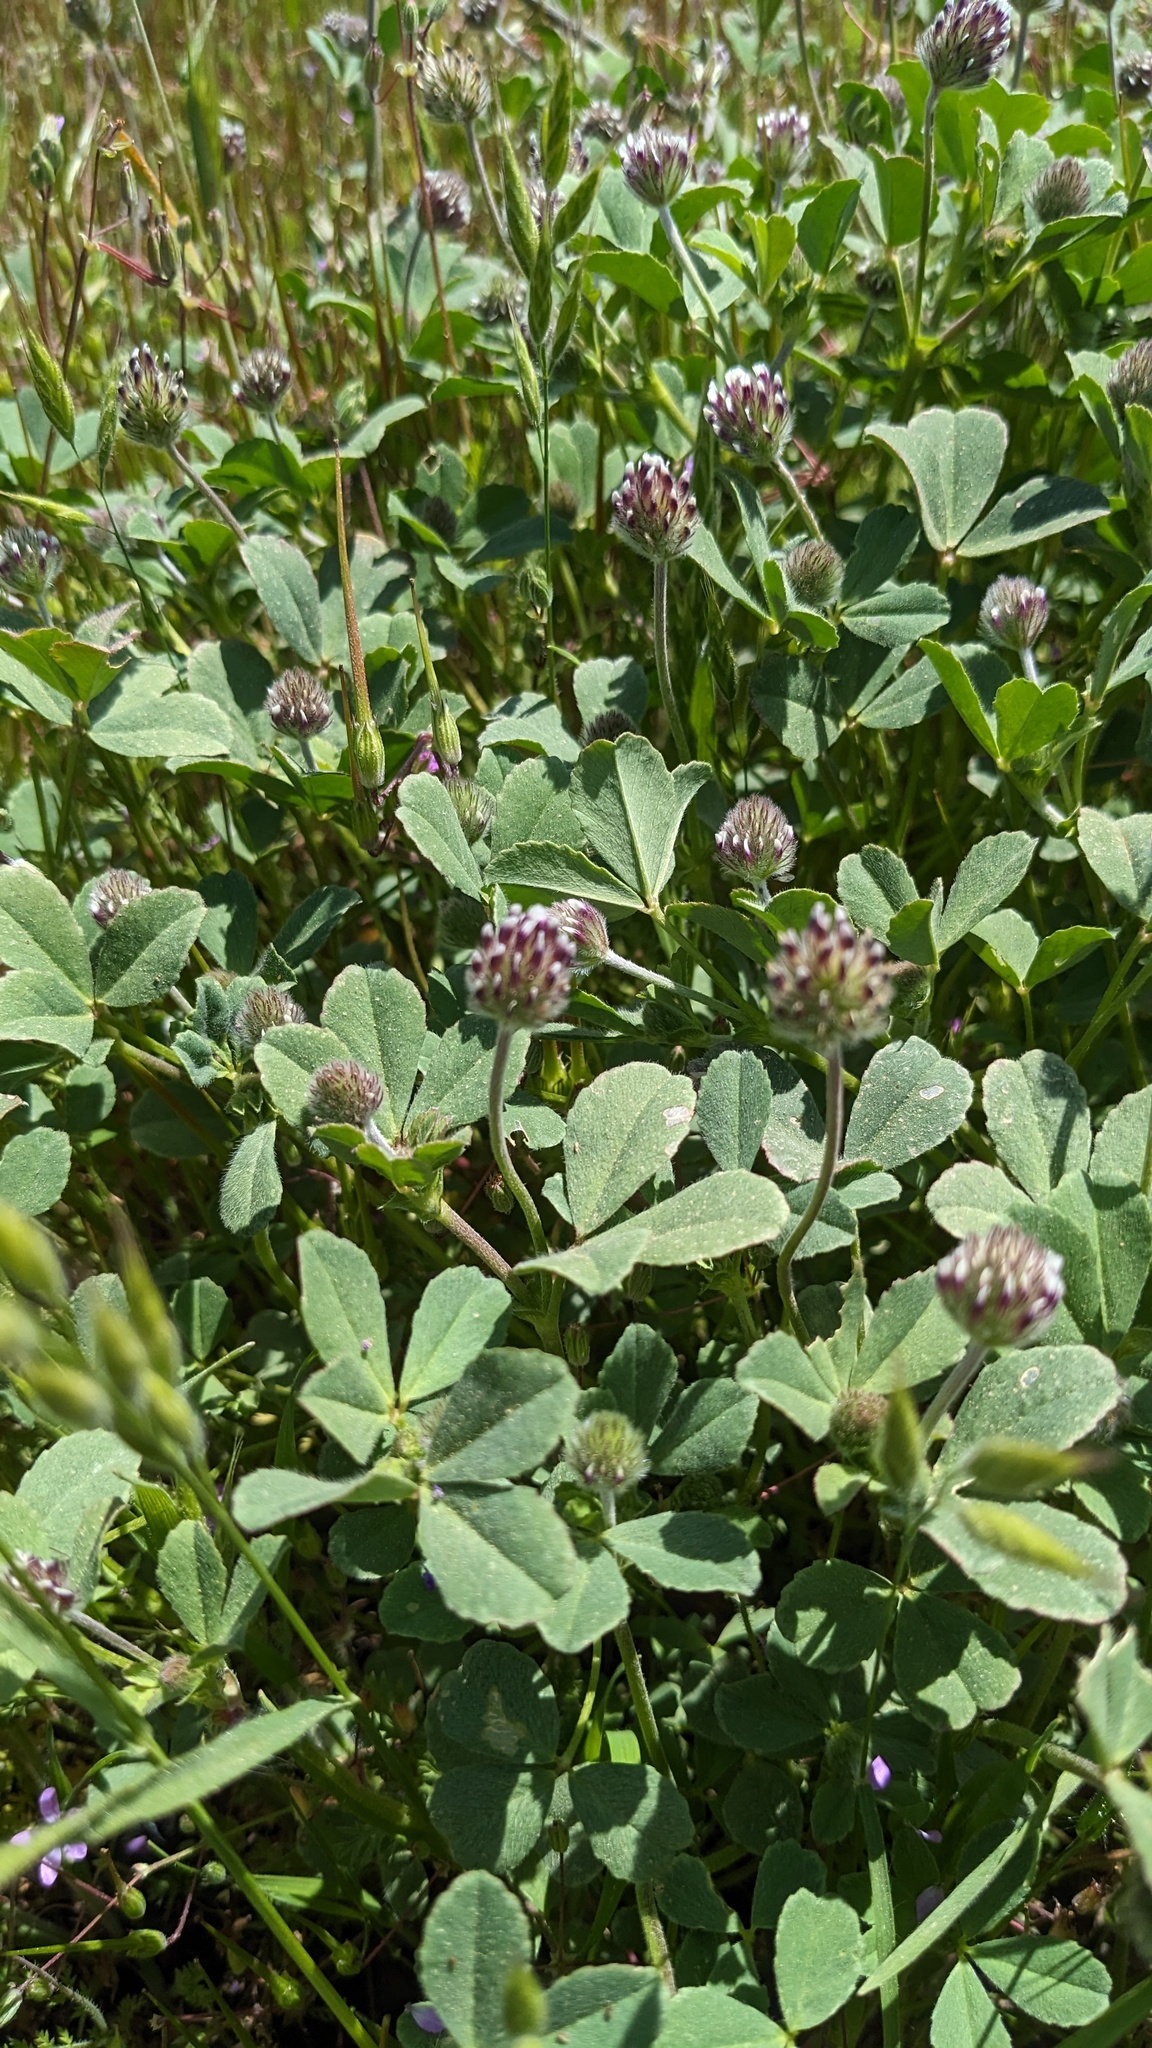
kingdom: Plantae
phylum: Tracheophyta
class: Magnoliopsida
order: Fabales
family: Fabaceae
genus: Trifolium
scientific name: Trifolium dichotomum
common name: Branched indian clover
